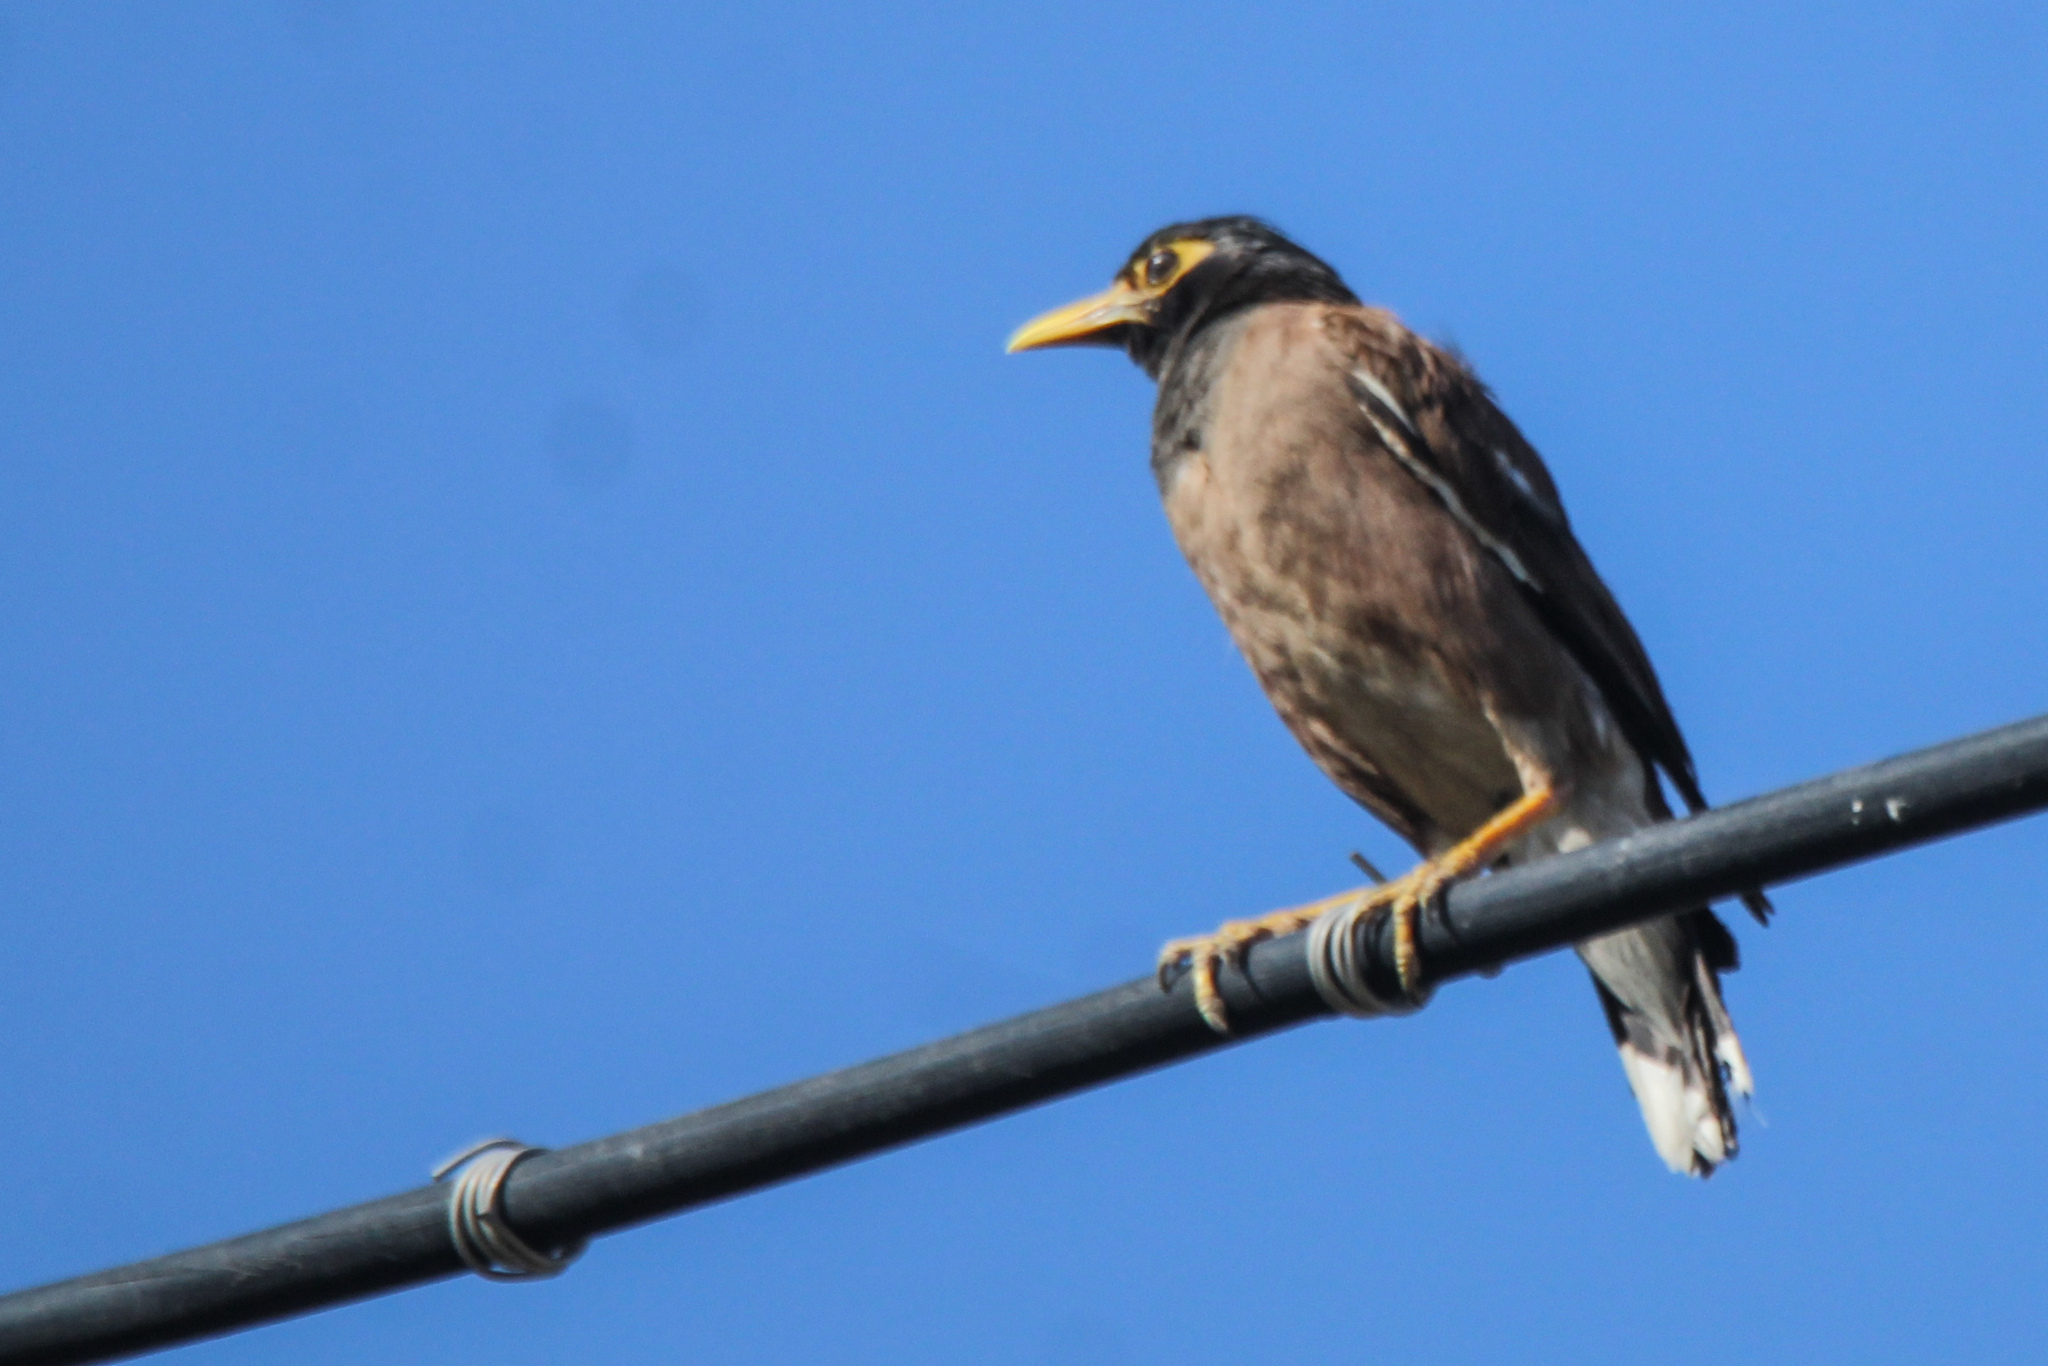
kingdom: Animalia
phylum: Chordata
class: Aves
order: Passeriformes
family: Sturnidae
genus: Acridotheres
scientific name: Acridotheres tristis
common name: Common myna
